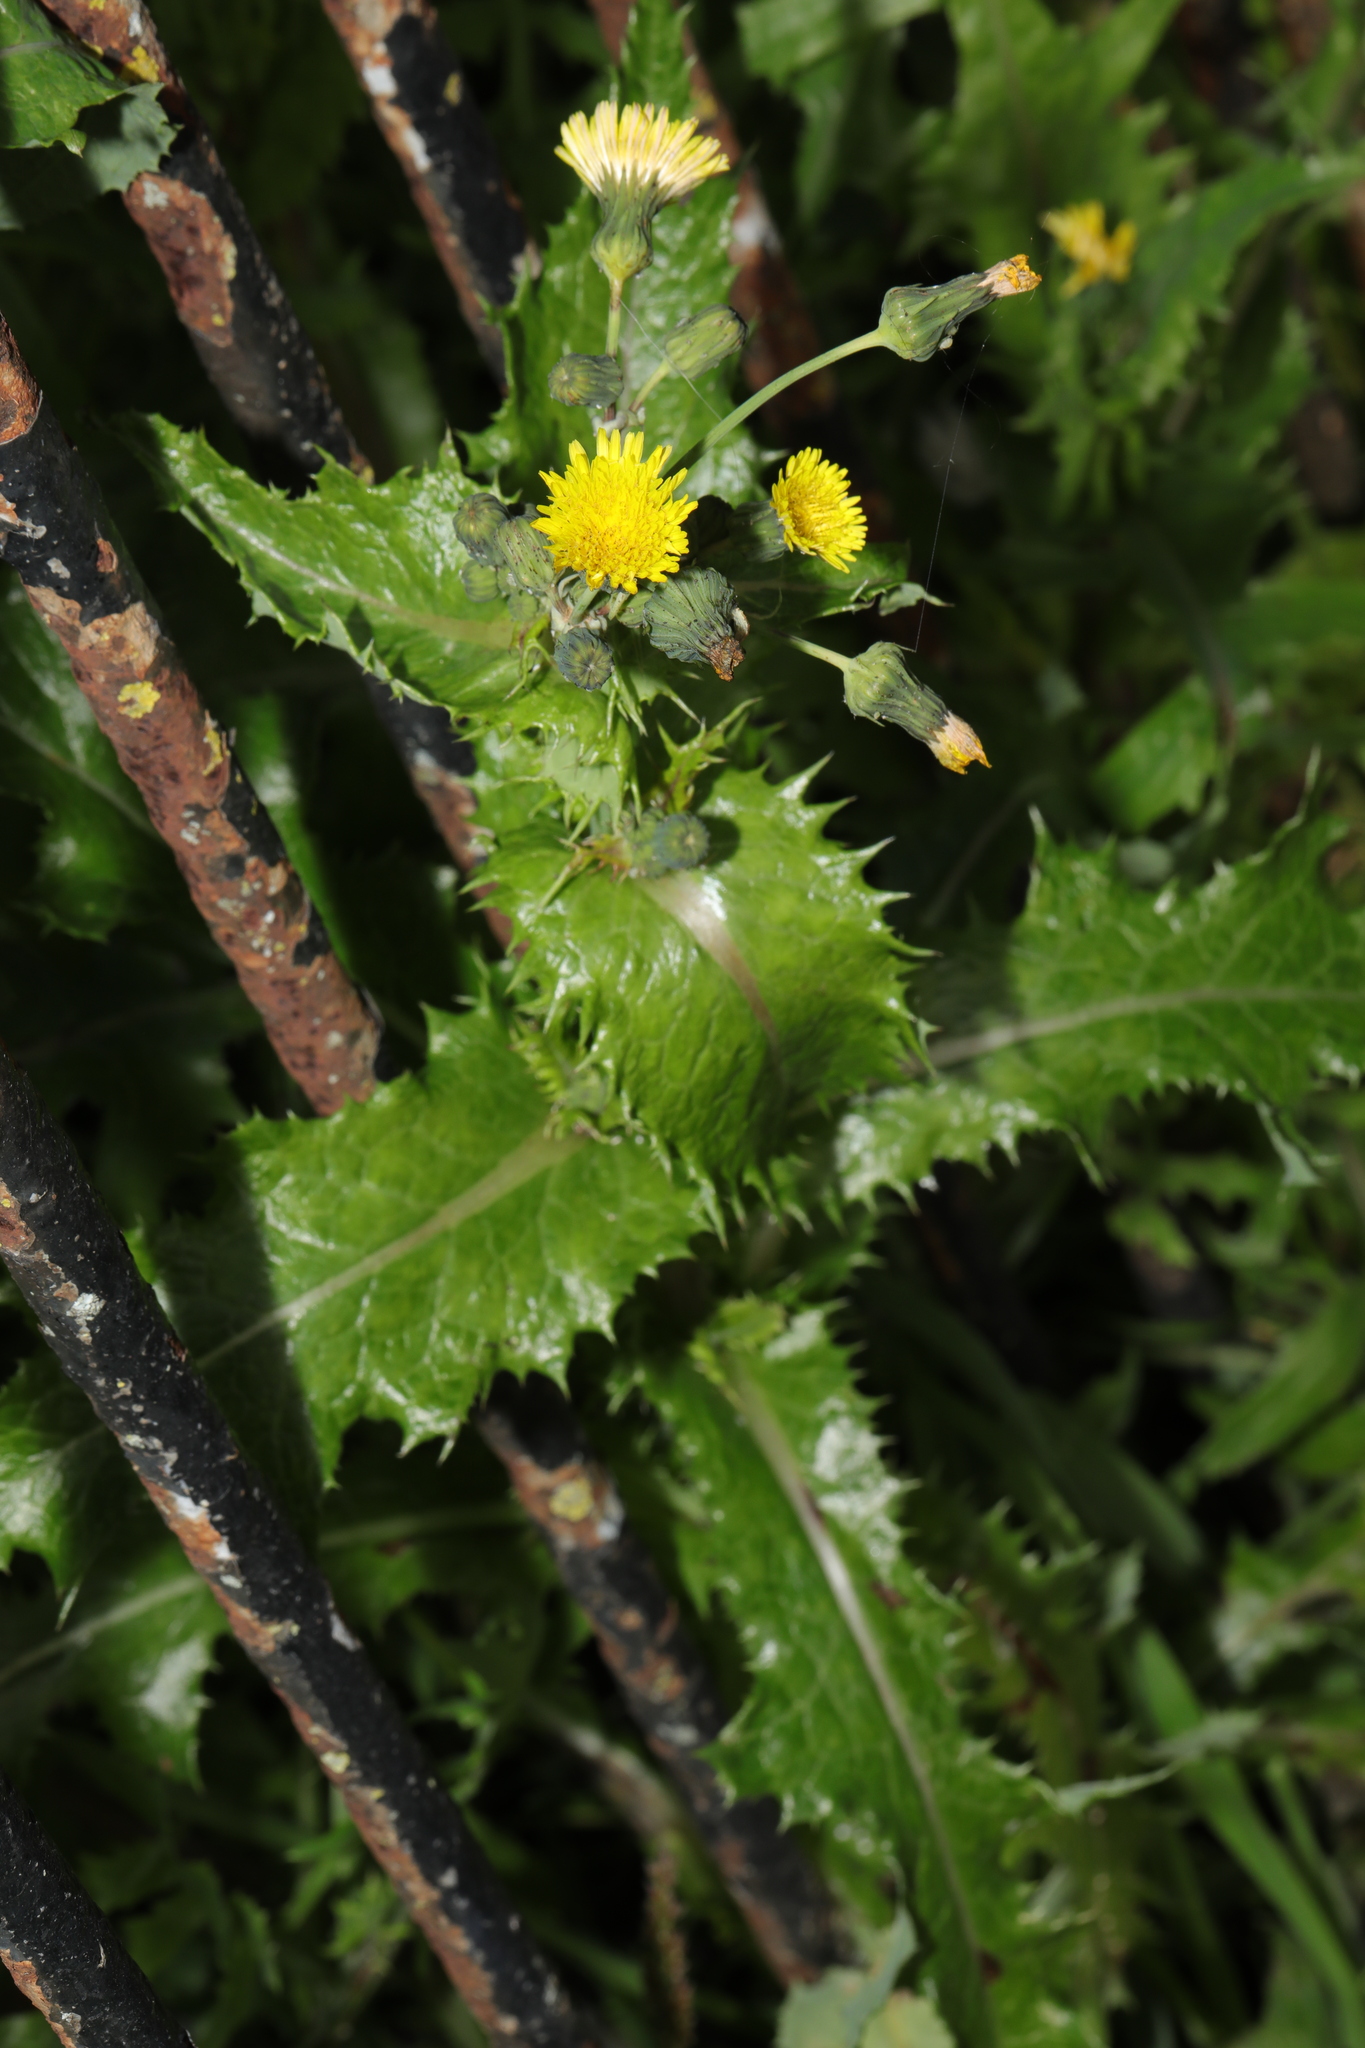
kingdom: Plantae
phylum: Tracheophyta
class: Magnoliopsida
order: Asterales
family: Asteraceae
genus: Sonchus
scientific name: Sonchus asper
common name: Prickly sow-thistle
